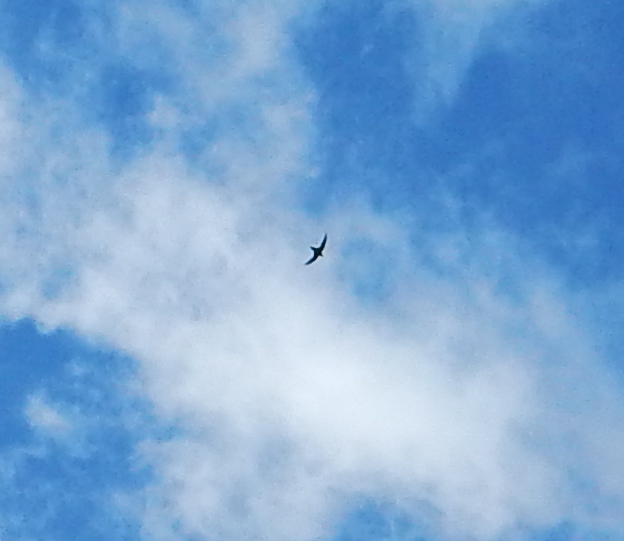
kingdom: Animalia
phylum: Chordata
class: Aves
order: Apodiformes
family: Apodidae
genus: Chaetura
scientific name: Chaetura pelagica
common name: Chimney swift
